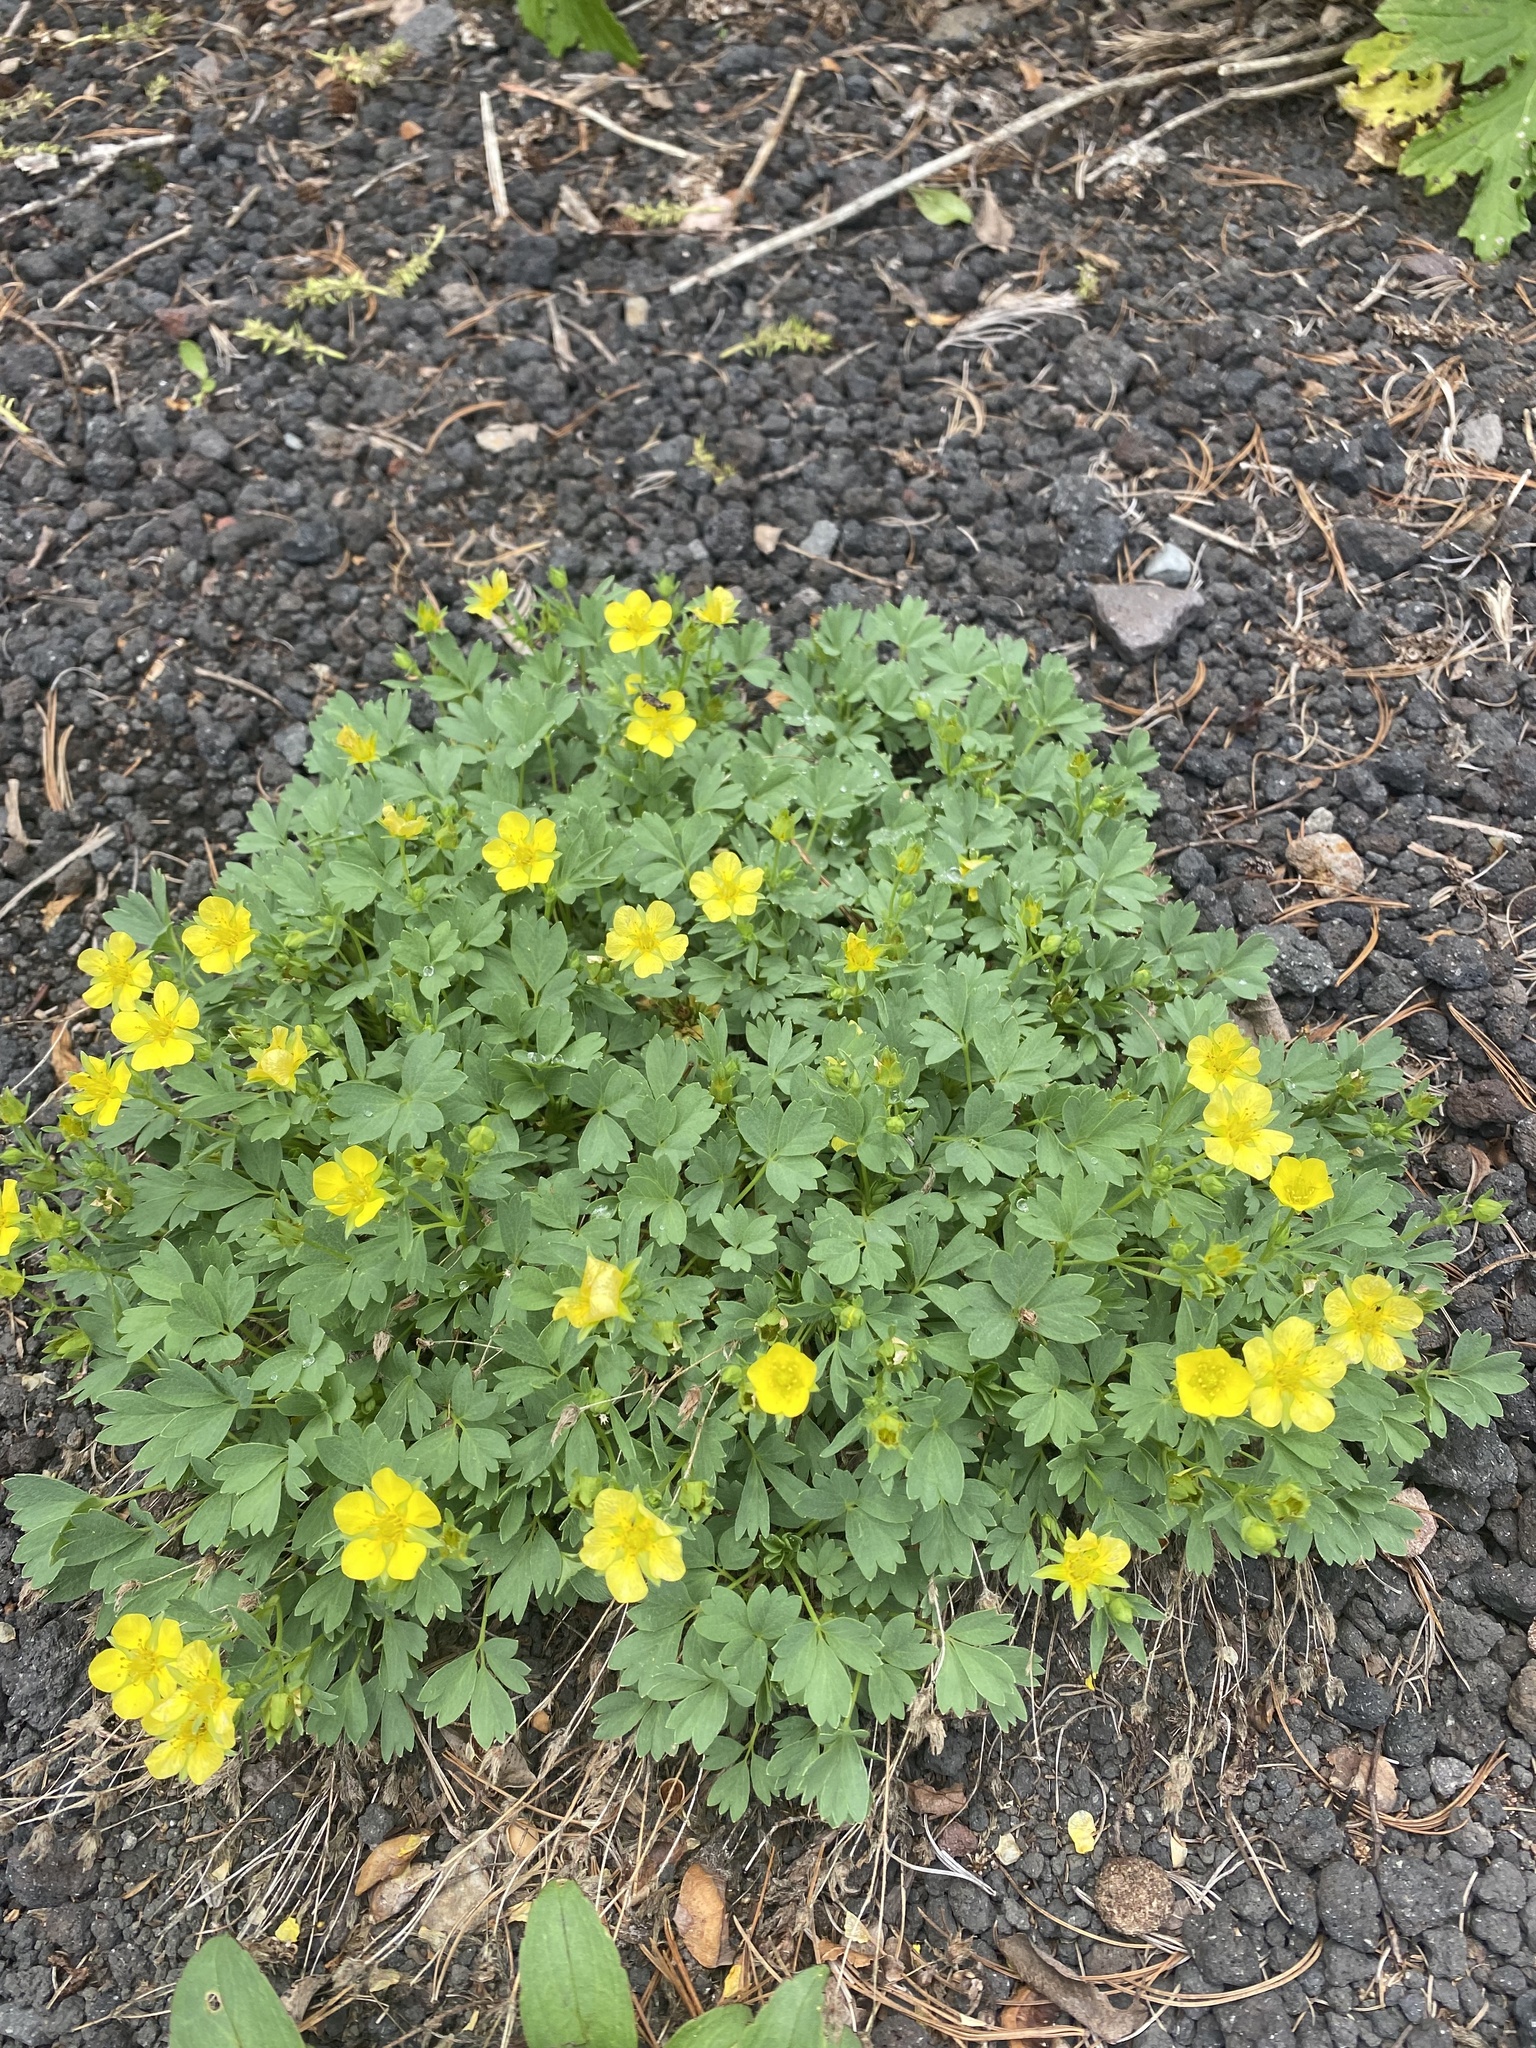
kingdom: Plantae
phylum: Tracheophyta
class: Magnoliopsida
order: Rosales
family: Rosaceae
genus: Sibbaldia
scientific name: Sibbaldia miyabei
